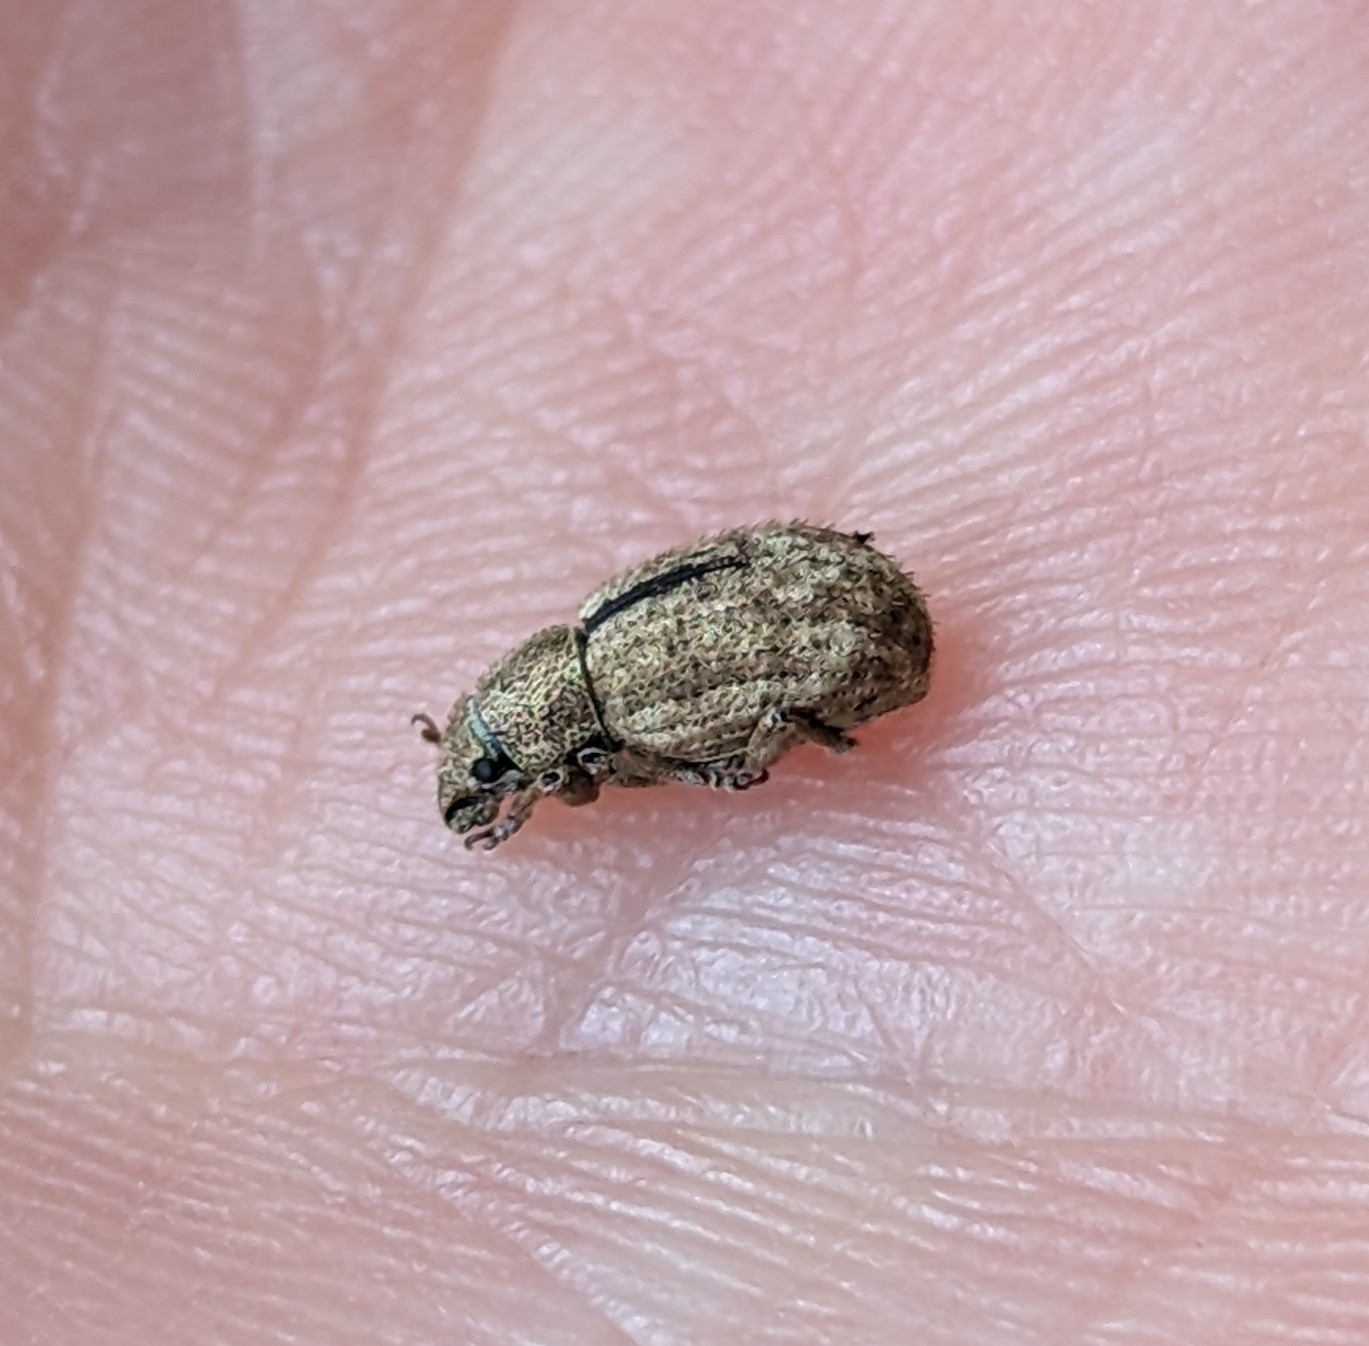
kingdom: Animalia
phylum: Arthropoda
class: Insecta
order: Coleoptera
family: Curculionidae
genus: Strophosoma
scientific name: Strophosoma melanogrammum
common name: Weevil
